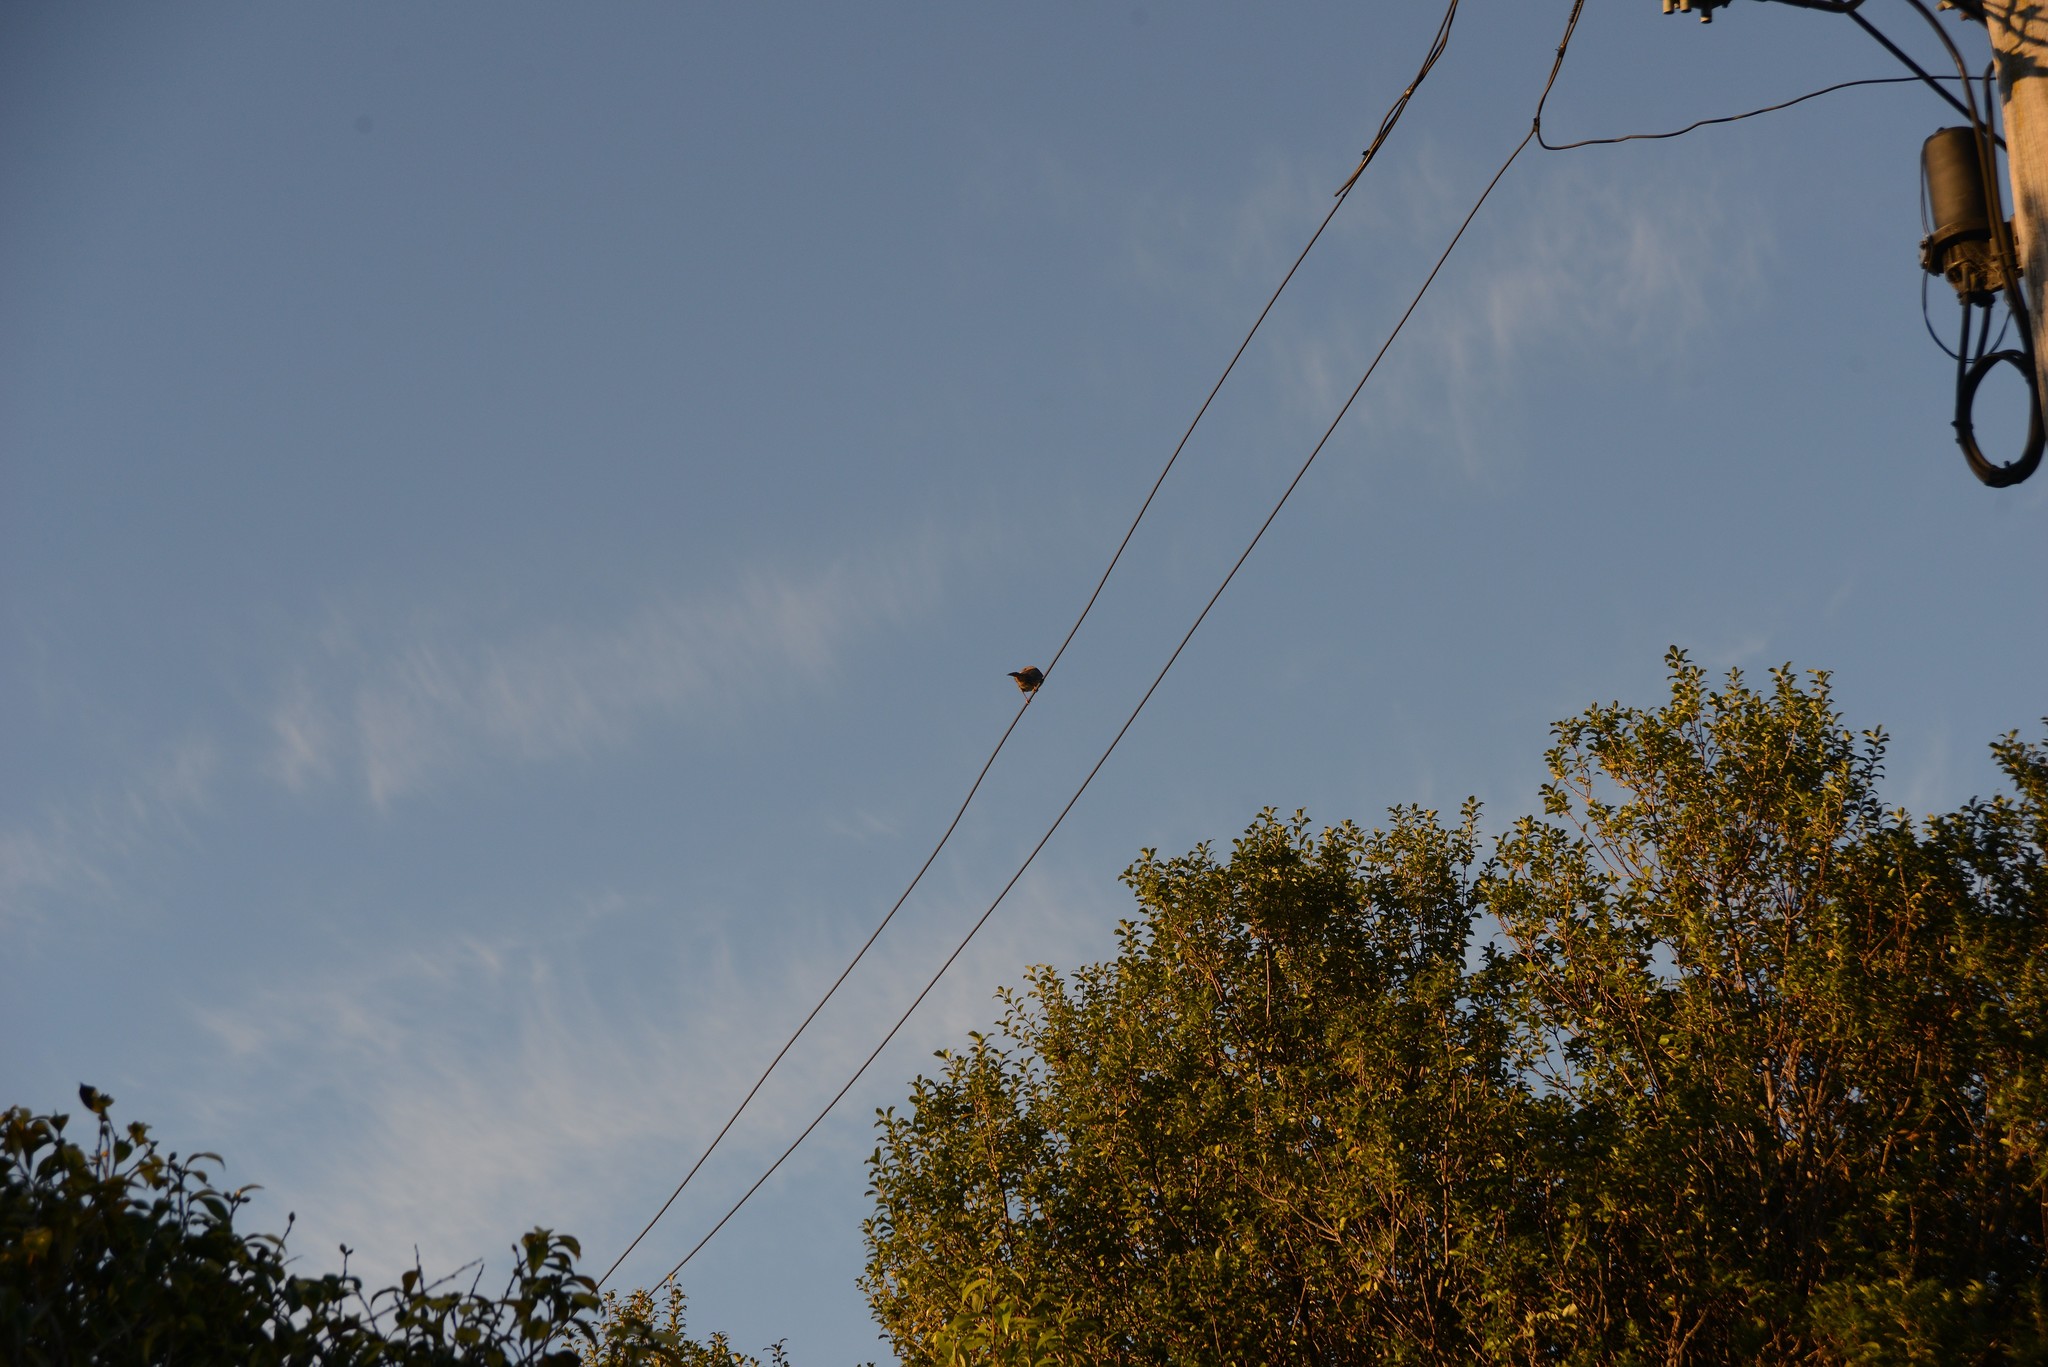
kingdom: Animalia
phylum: Chordata
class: Aves
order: Passeriformes
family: Prunellidae
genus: Prunella
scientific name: Prunella modularis
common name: Dunnock
